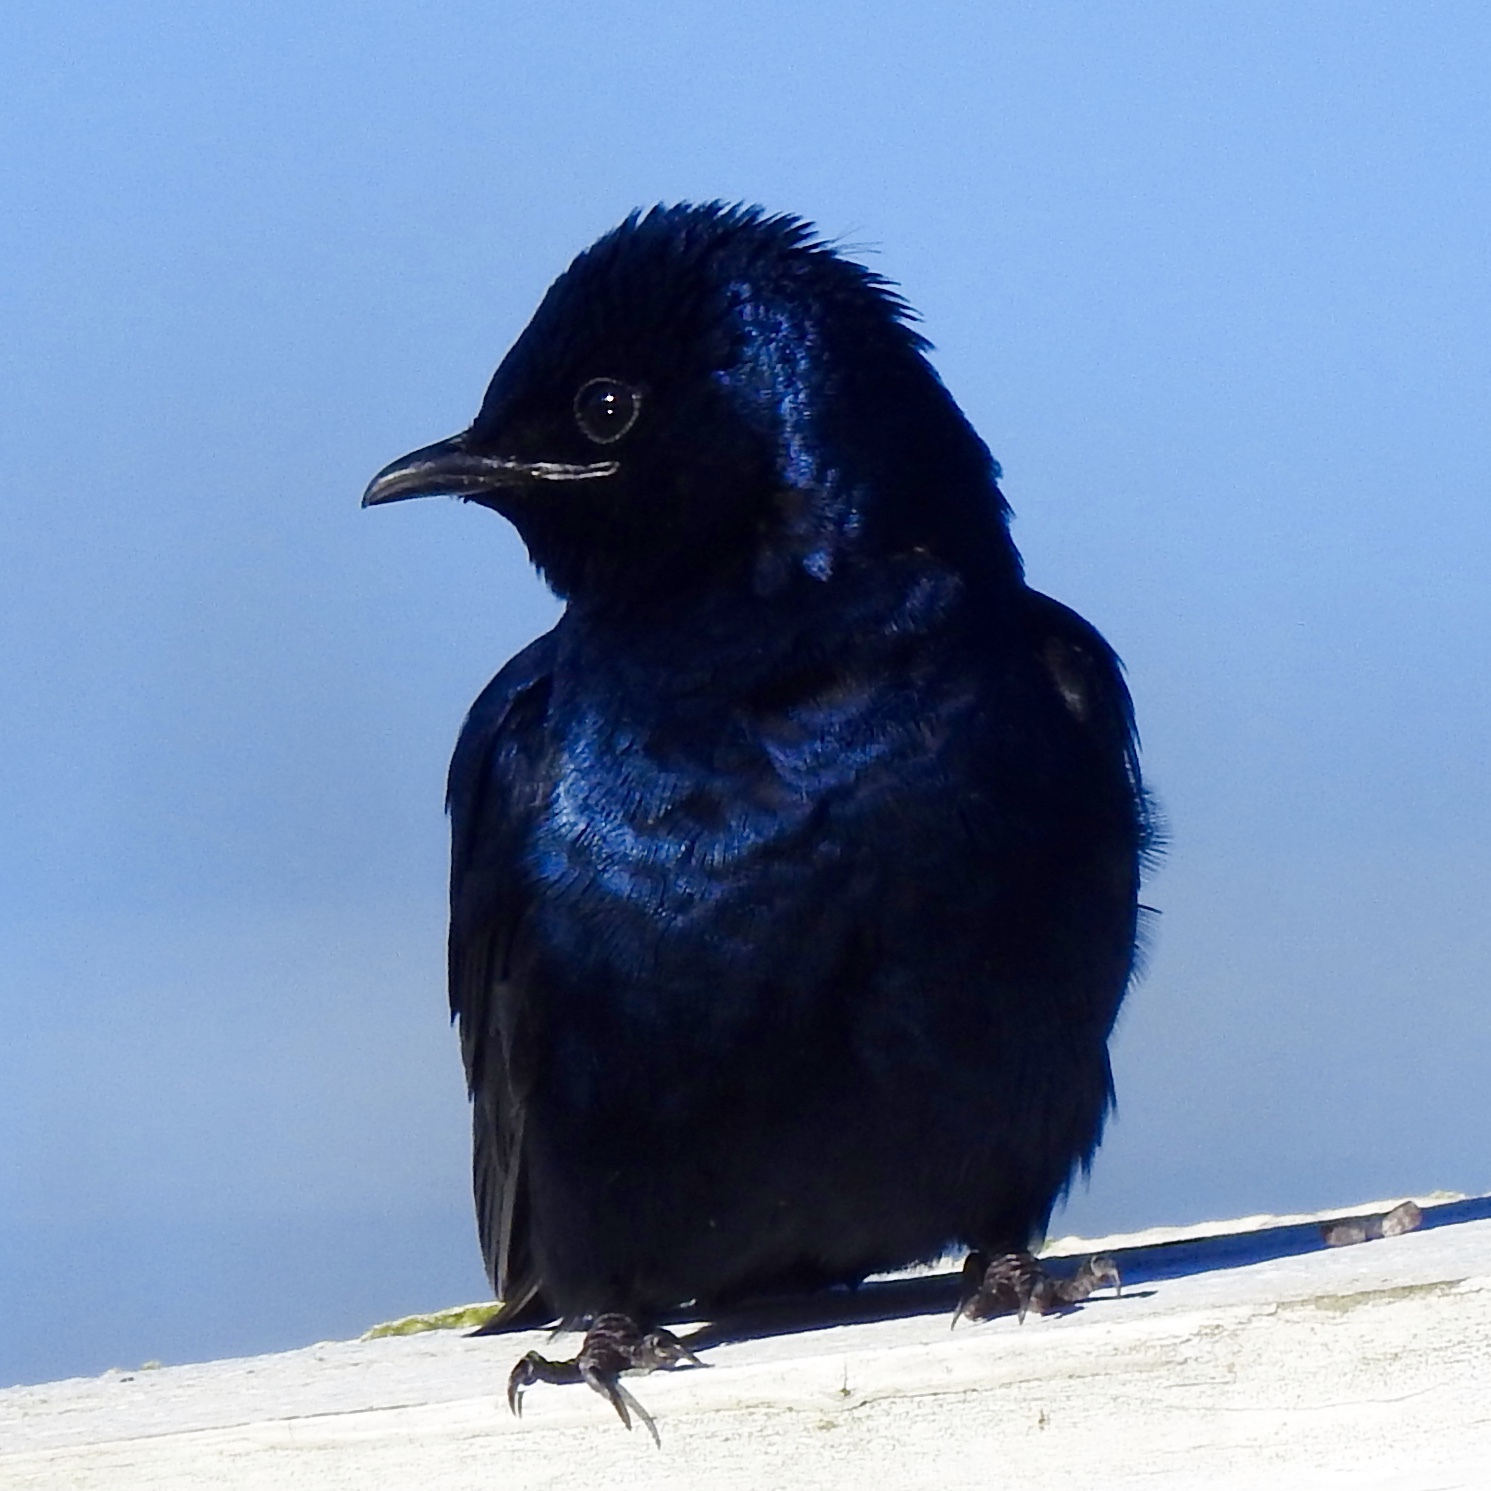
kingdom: Animalia
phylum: Chordata
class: Aves
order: Passeriformes
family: Hirundinidae
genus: Progne
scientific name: Progne subis
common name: Purple martin
